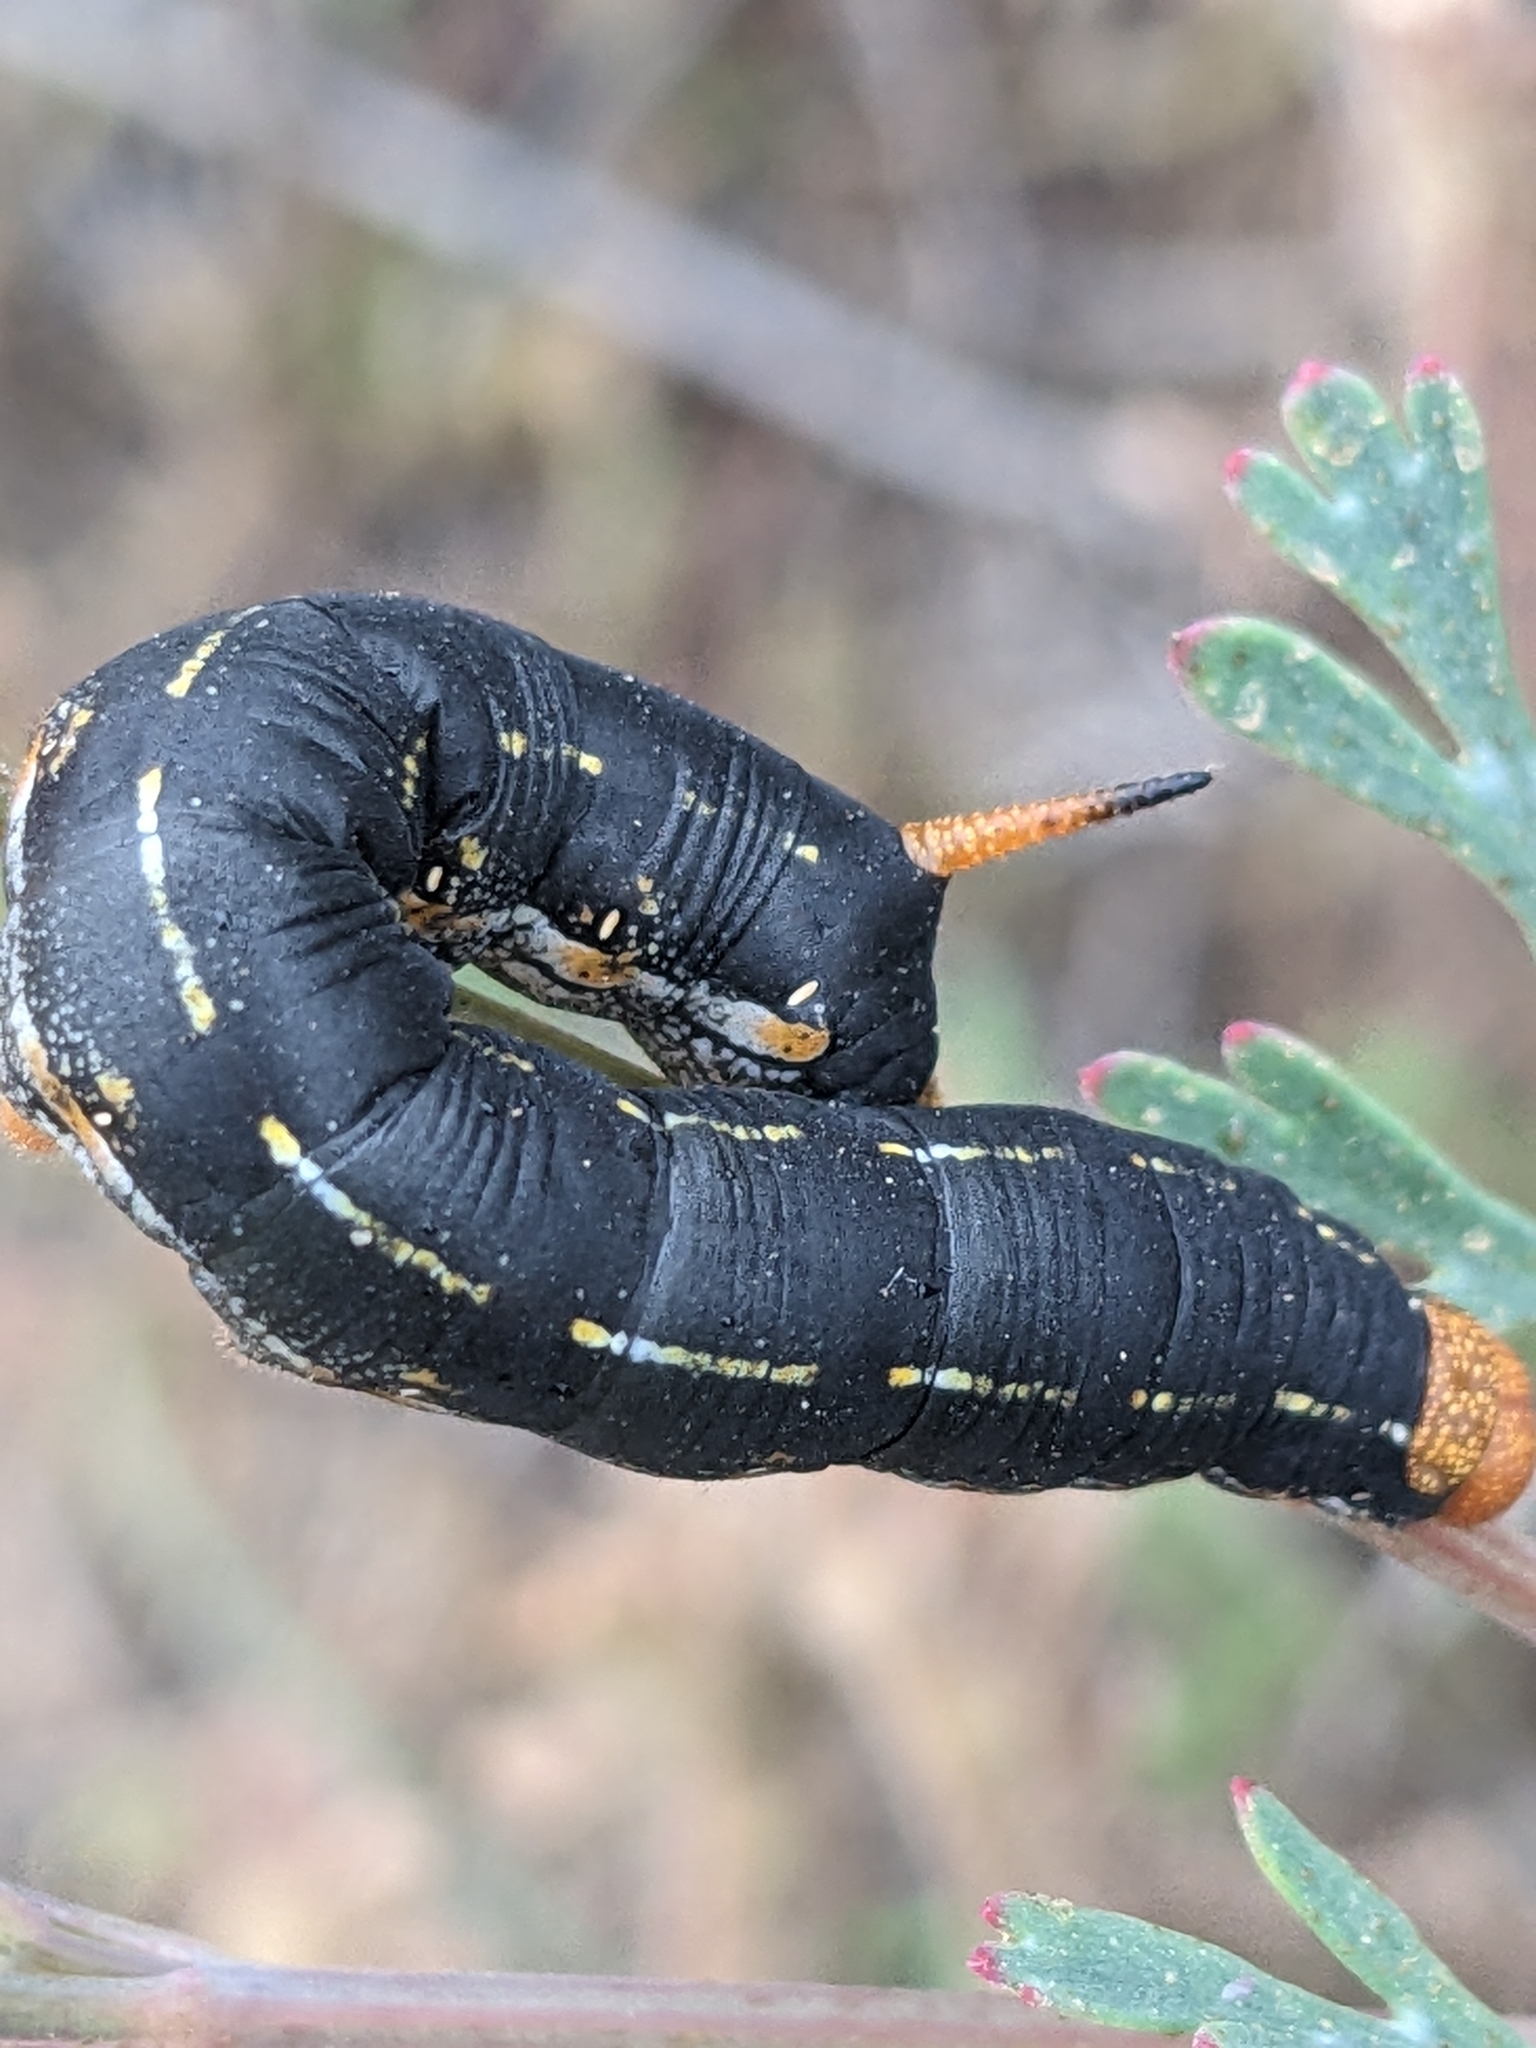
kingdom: Animalia
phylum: Arthropoda
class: Insecta
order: Lepidoptera
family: Sphingidae
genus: Hyles
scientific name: Hyles lineata
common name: White-lined sphinx
